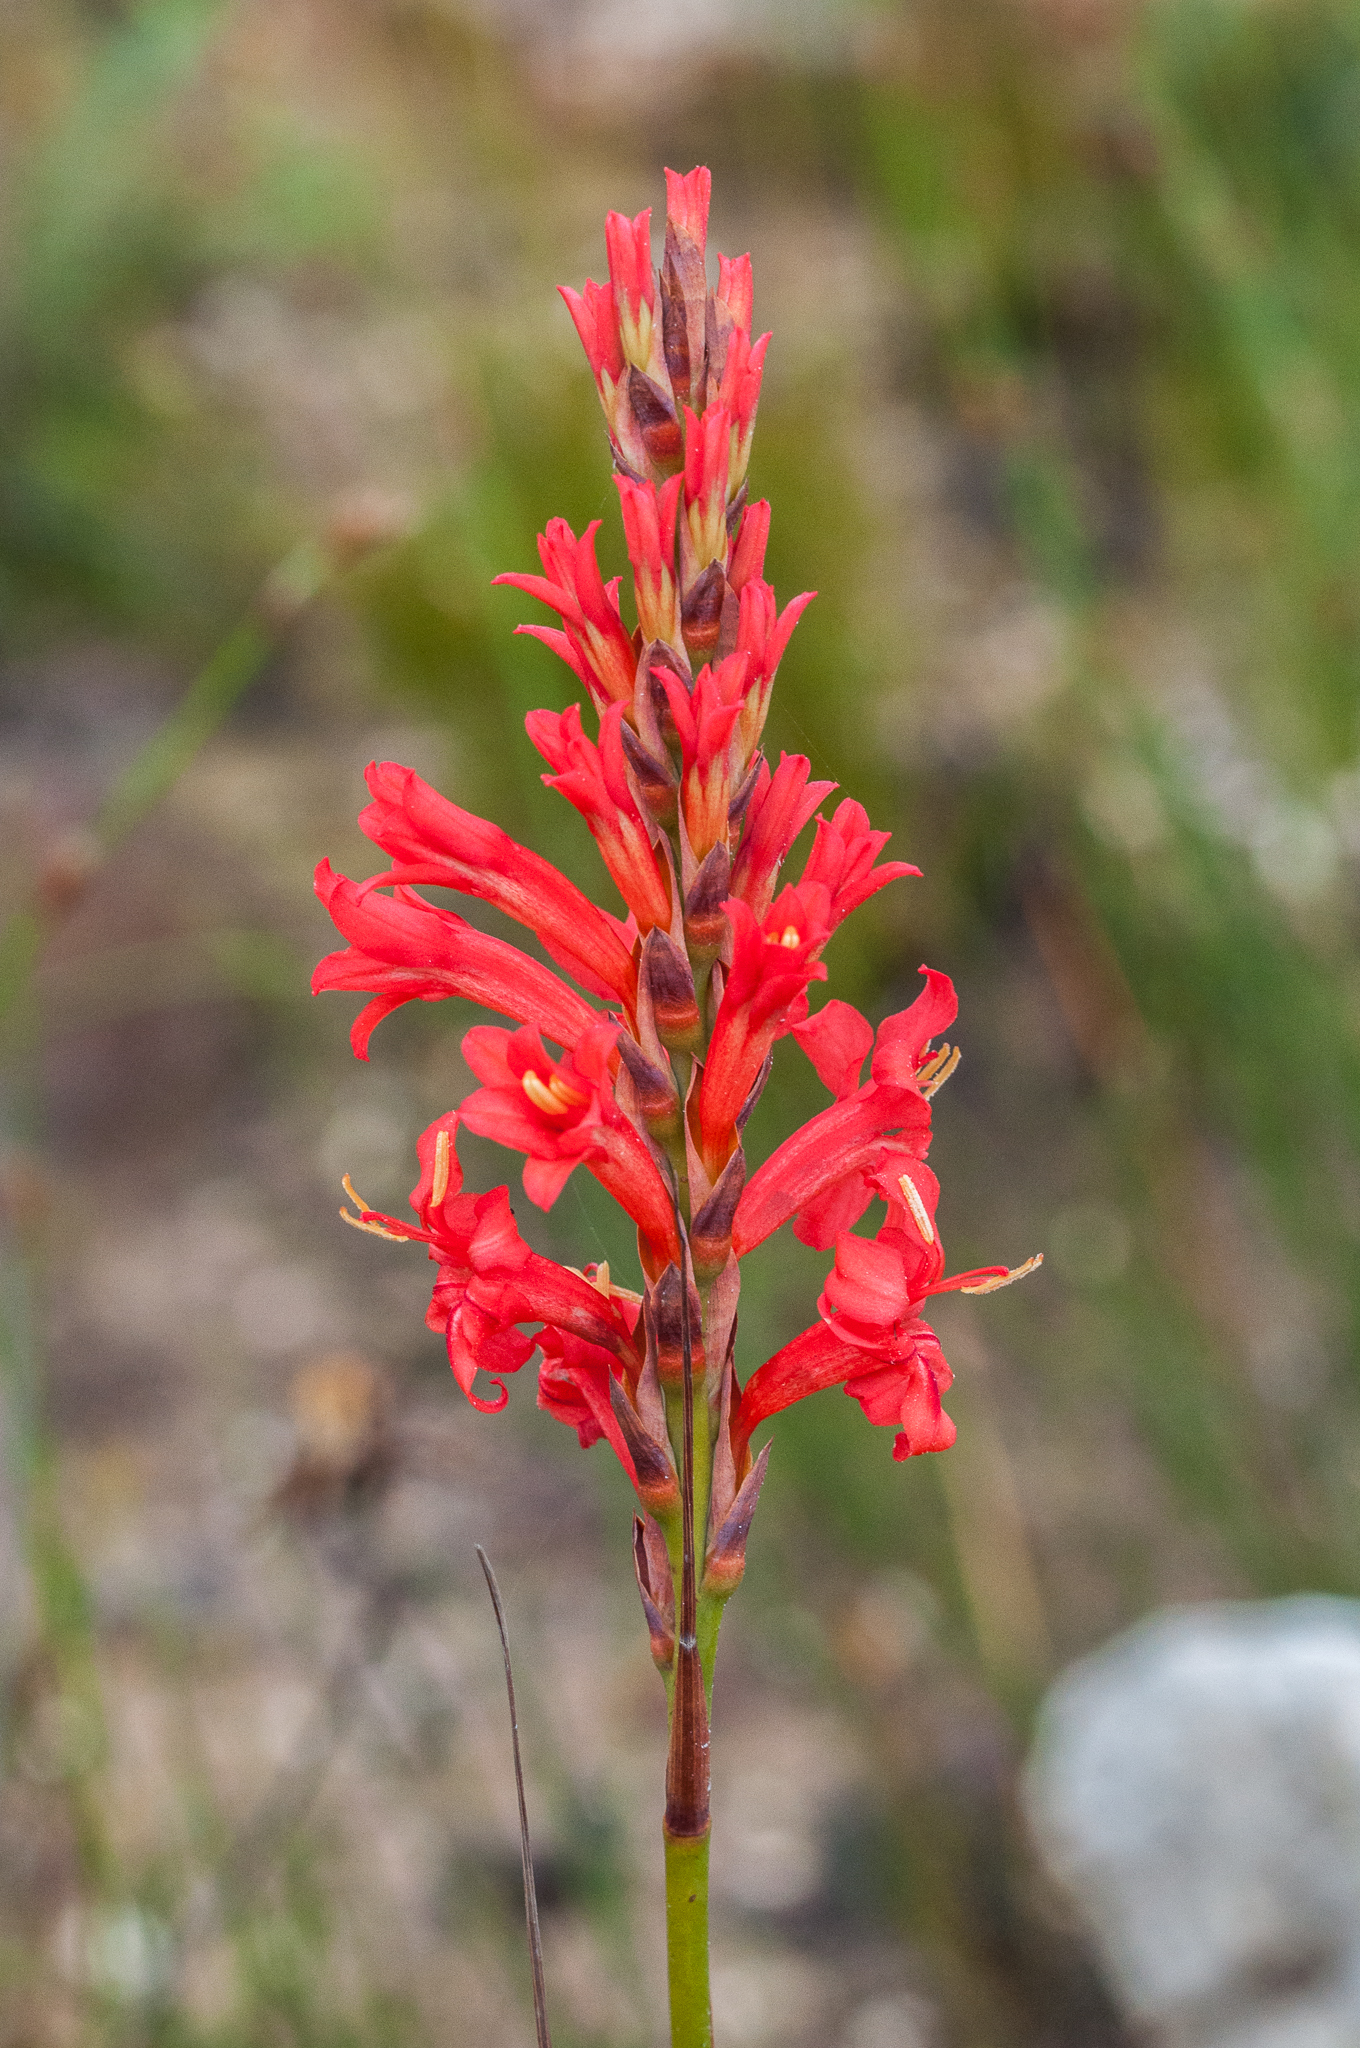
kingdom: Plantae
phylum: Tracheophyta
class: Liliopsida
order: Asparagales
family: Iridaceae
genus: Tritoniopsis
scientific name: Tritoniopsis triticea
